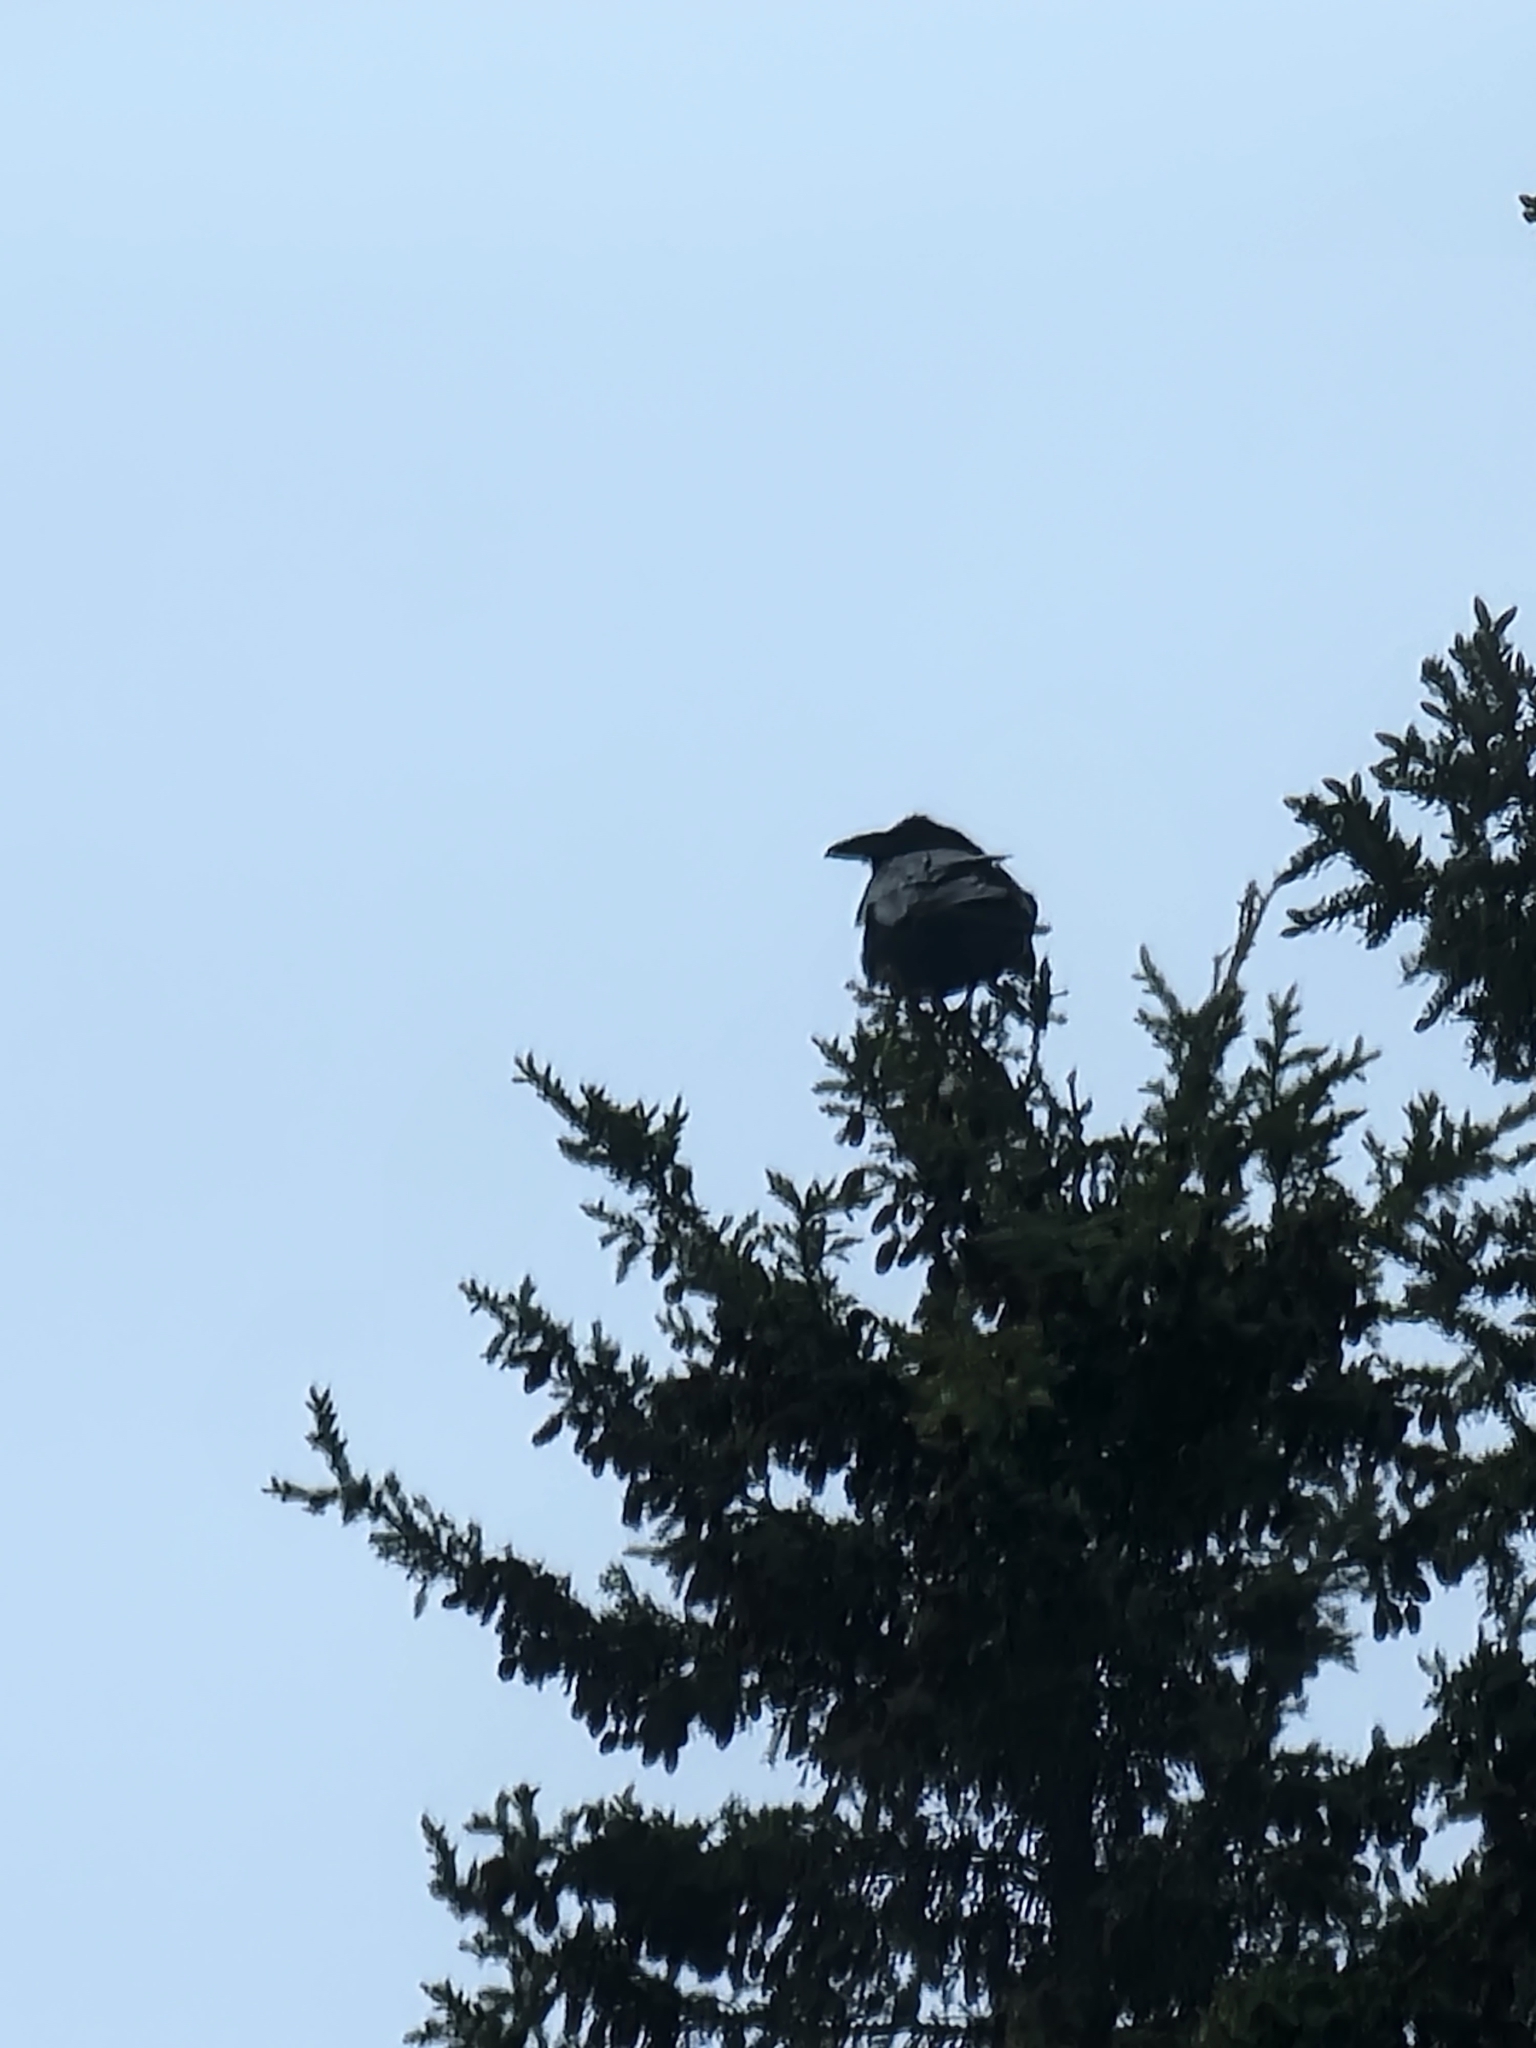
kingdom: Animalia
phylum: Chordata
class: Aves
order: Passeriformes
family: Corvidae
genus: Corvus
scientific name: Corvus corax
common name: Common raven
